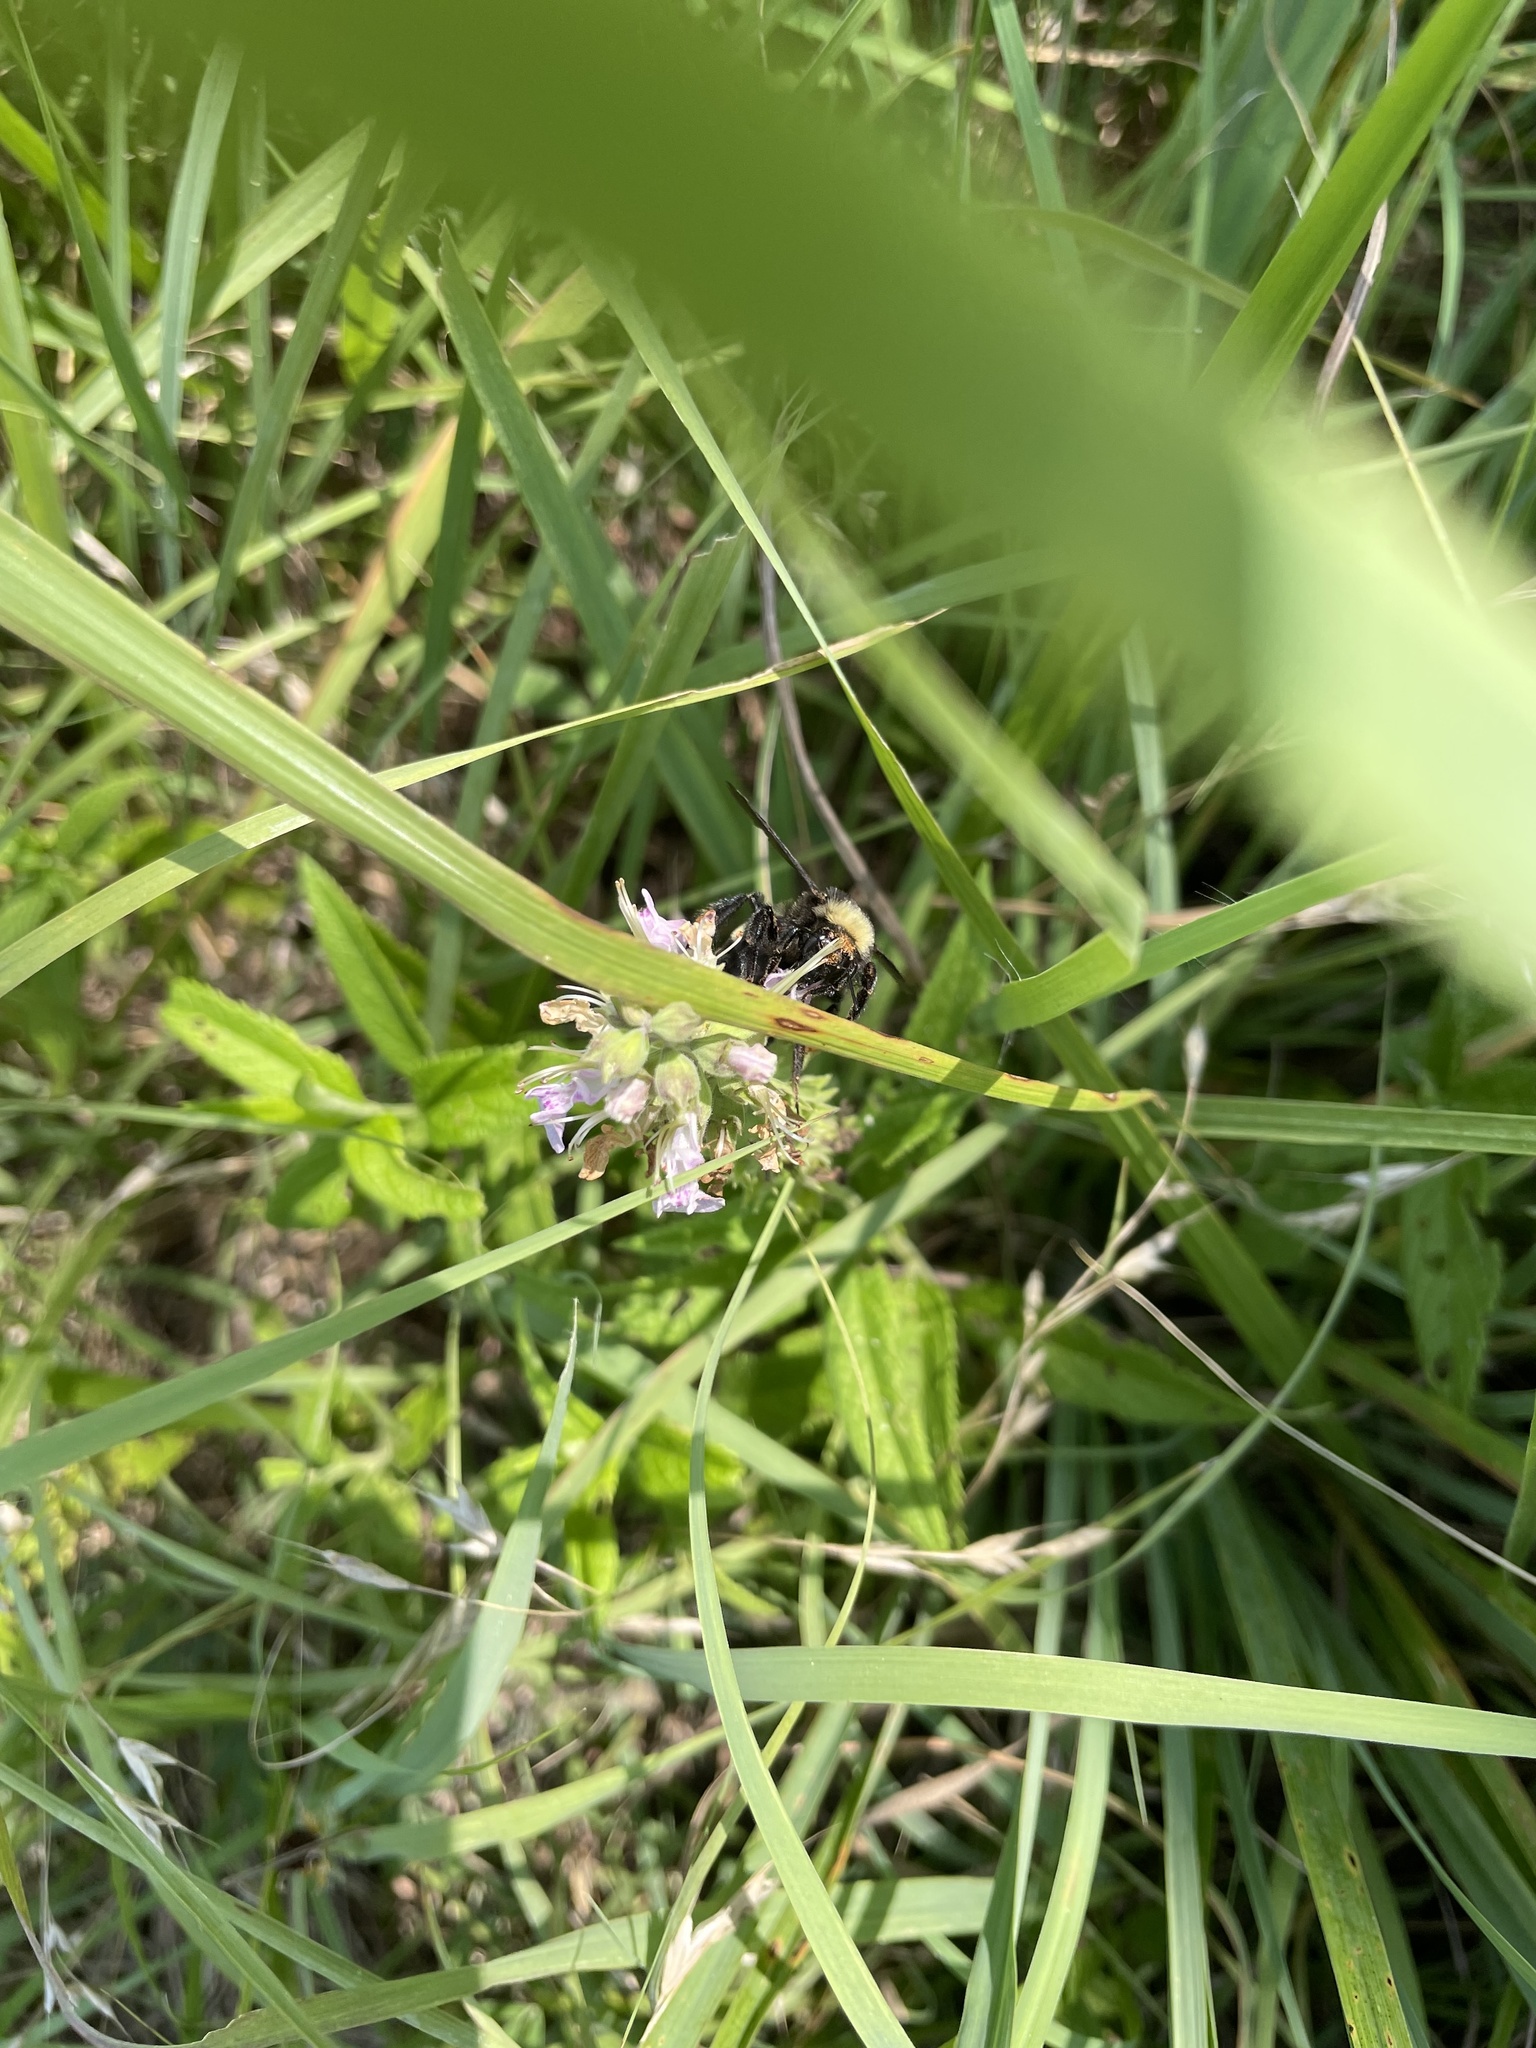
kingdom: Animalia
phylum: Arthropoda
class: Insecta
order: Hymenoptera
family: Apidae
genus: Bombus
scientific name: Bombus pensylvanicus
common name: Bumble bee
